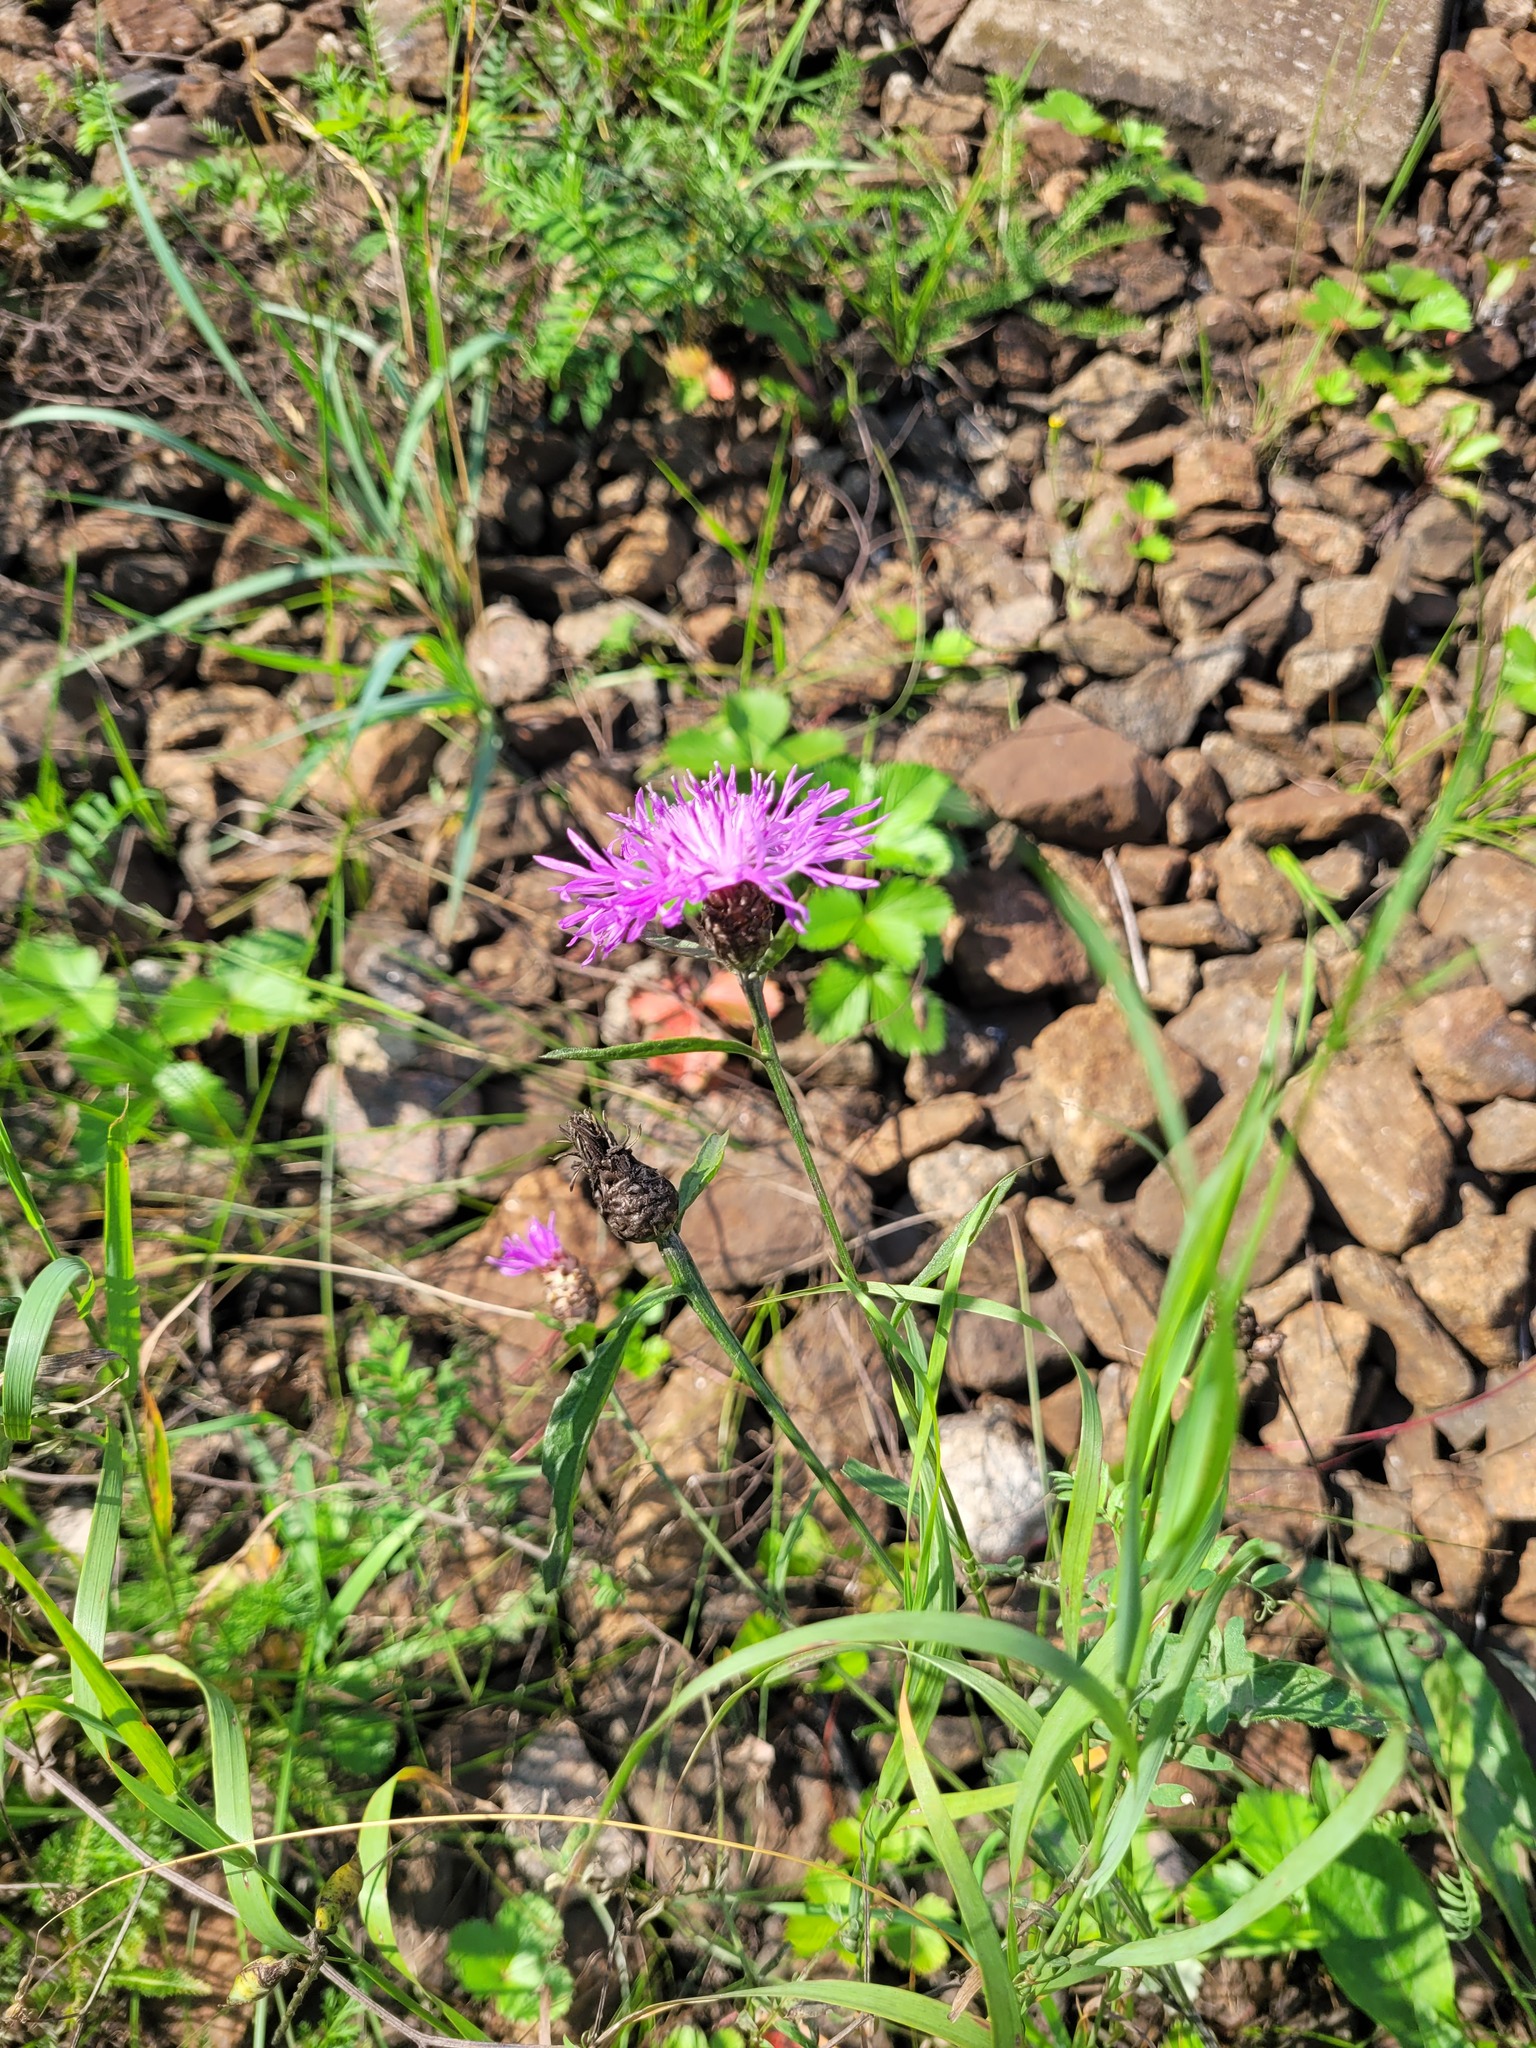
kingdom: Plantae
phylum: Tracheophyta
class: Magnoliopsida
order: Asterales
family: Asteraceae
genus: Centaurea
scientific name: Centaurea jacea
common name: Brown knapweed
